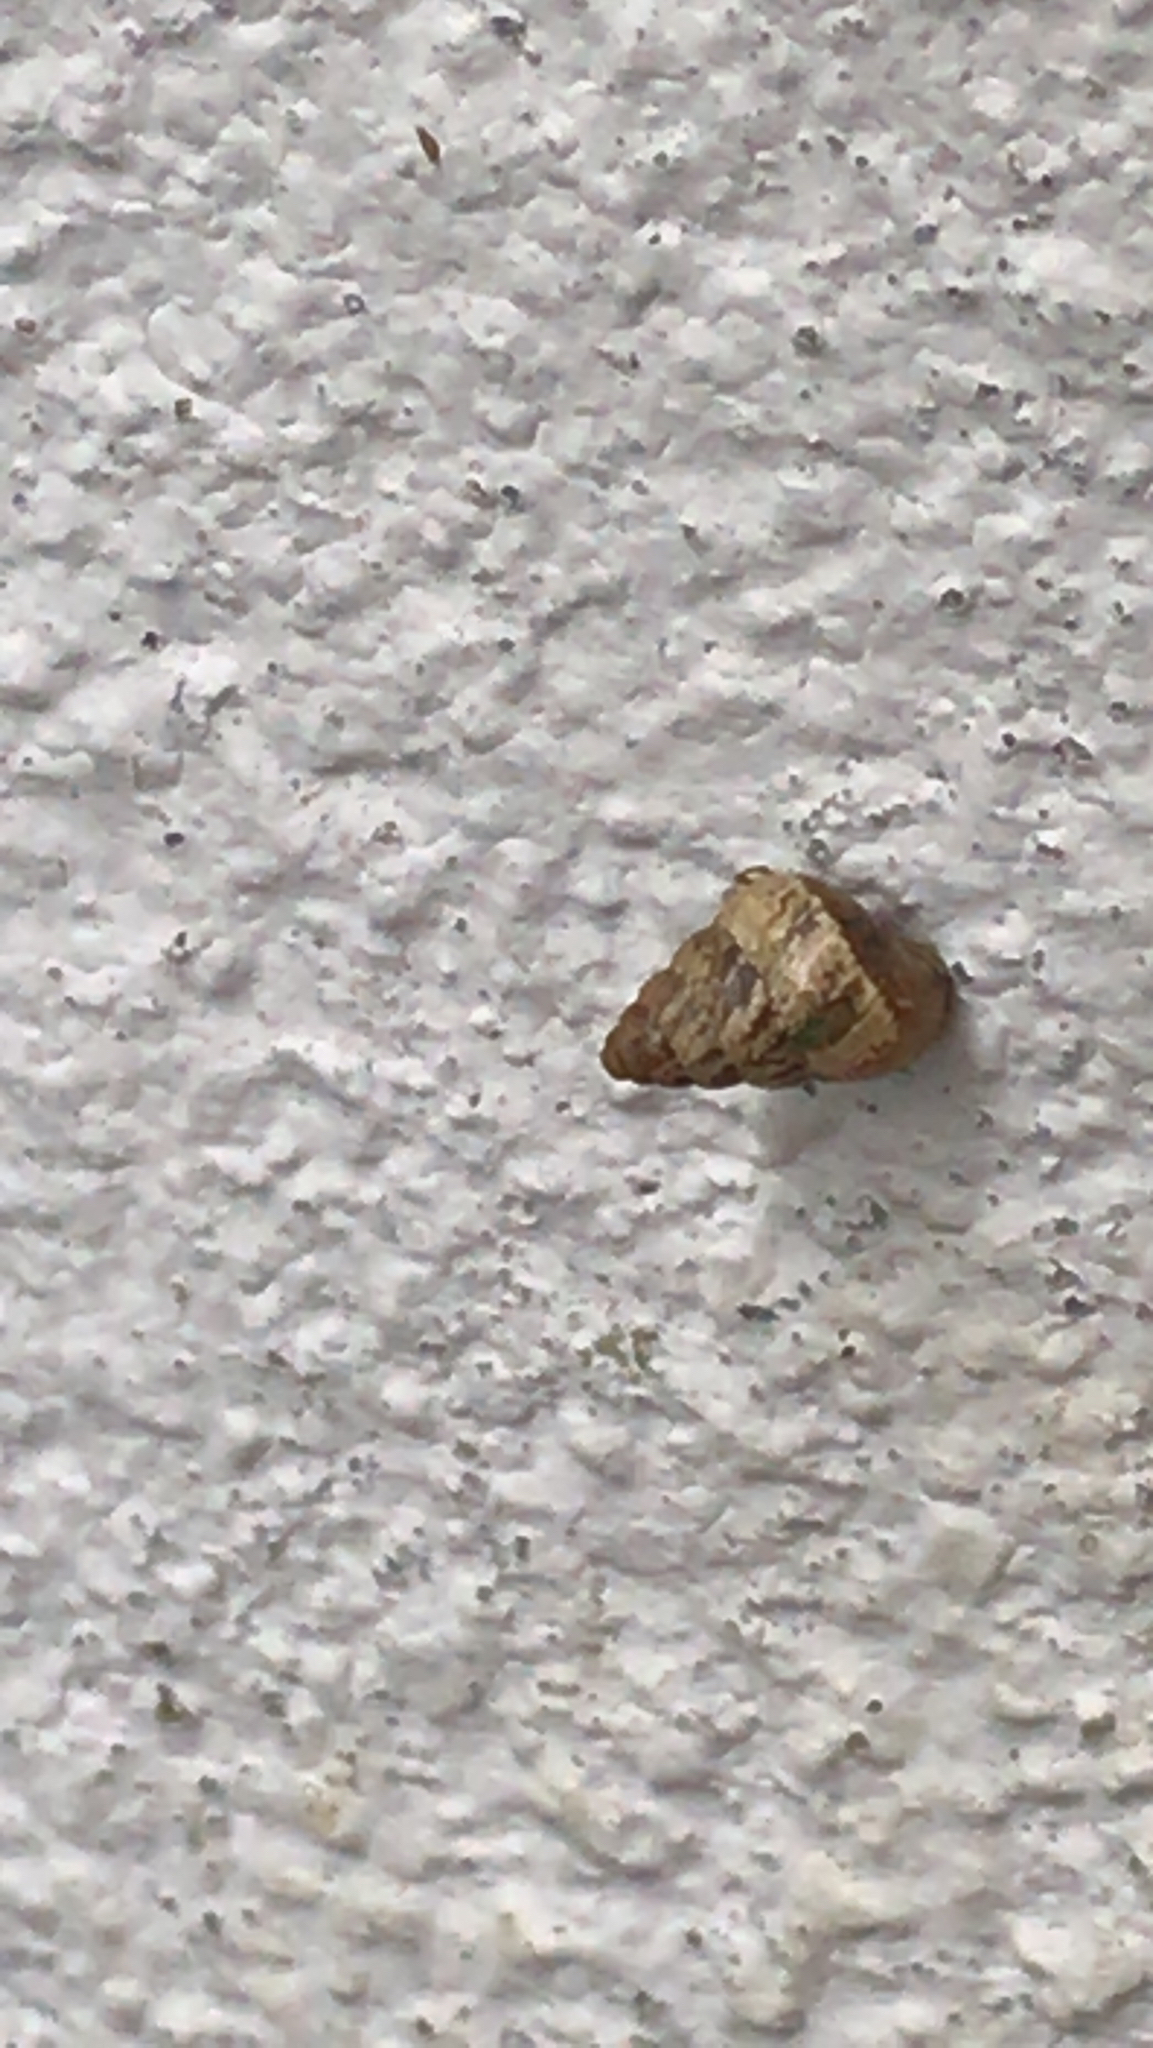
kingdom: Animalia
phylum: Mollusca
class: Gastropoda
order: Stylommatophora
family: Geomitridae
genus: Cochlicella
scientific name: Cochlicella barbara
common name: Potbellied helicellid
